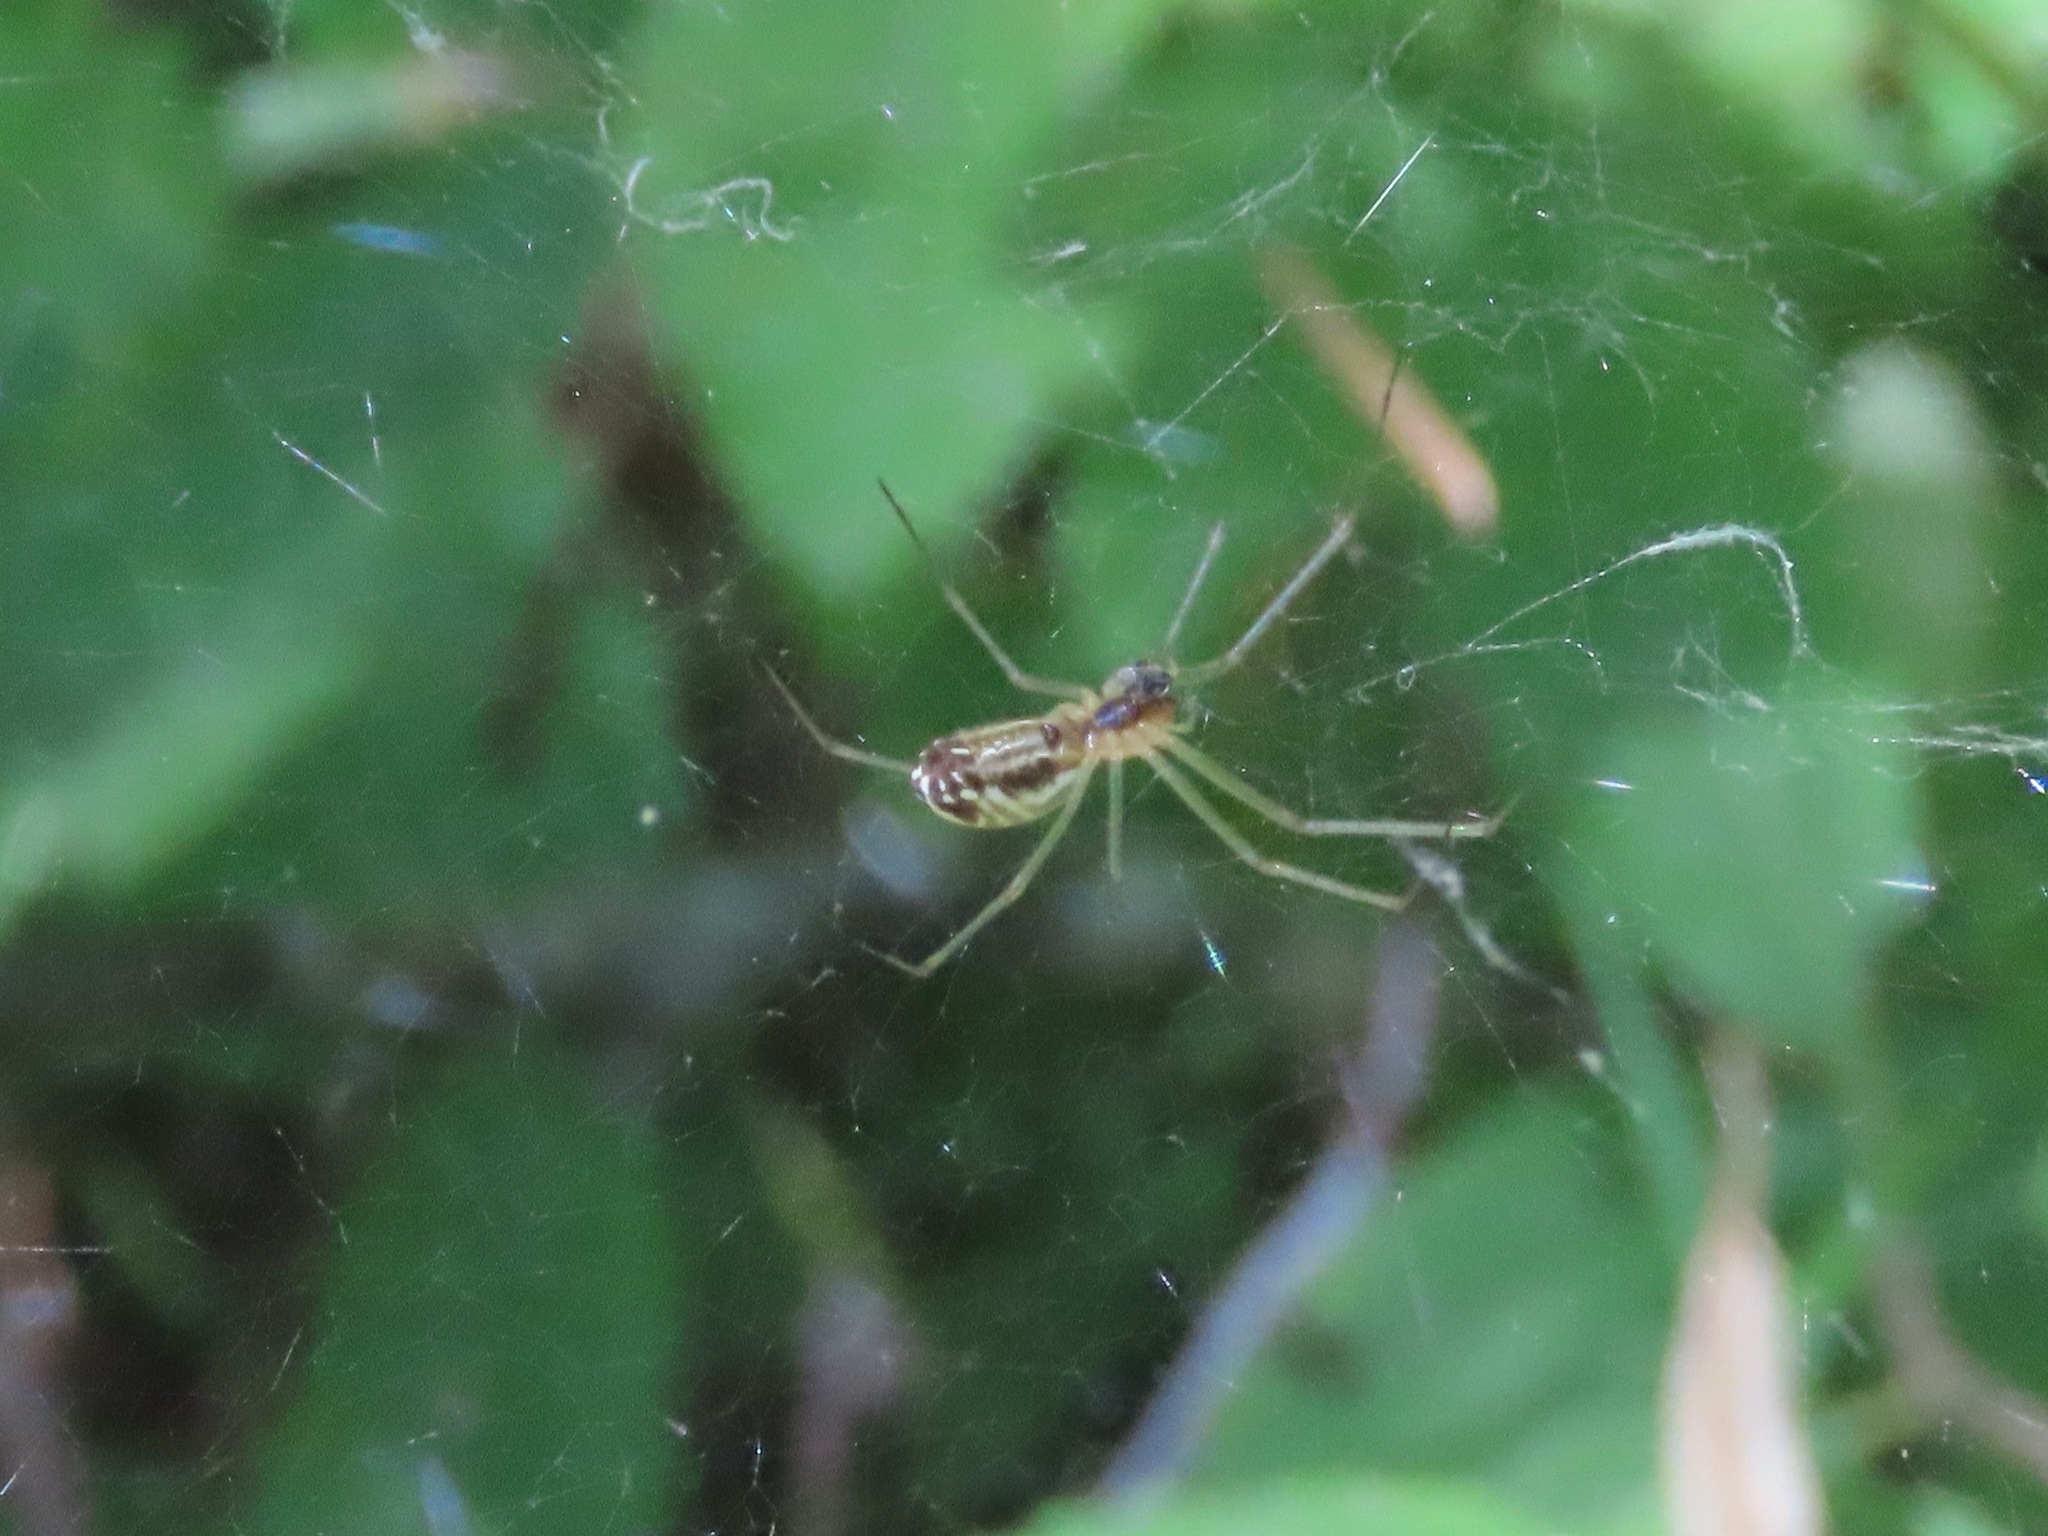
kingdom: Animalia
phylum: Arthropoda
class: Arachnida
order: Araneae
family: Linyphiidae
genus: Neriene
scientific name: Neriene litigiosa
